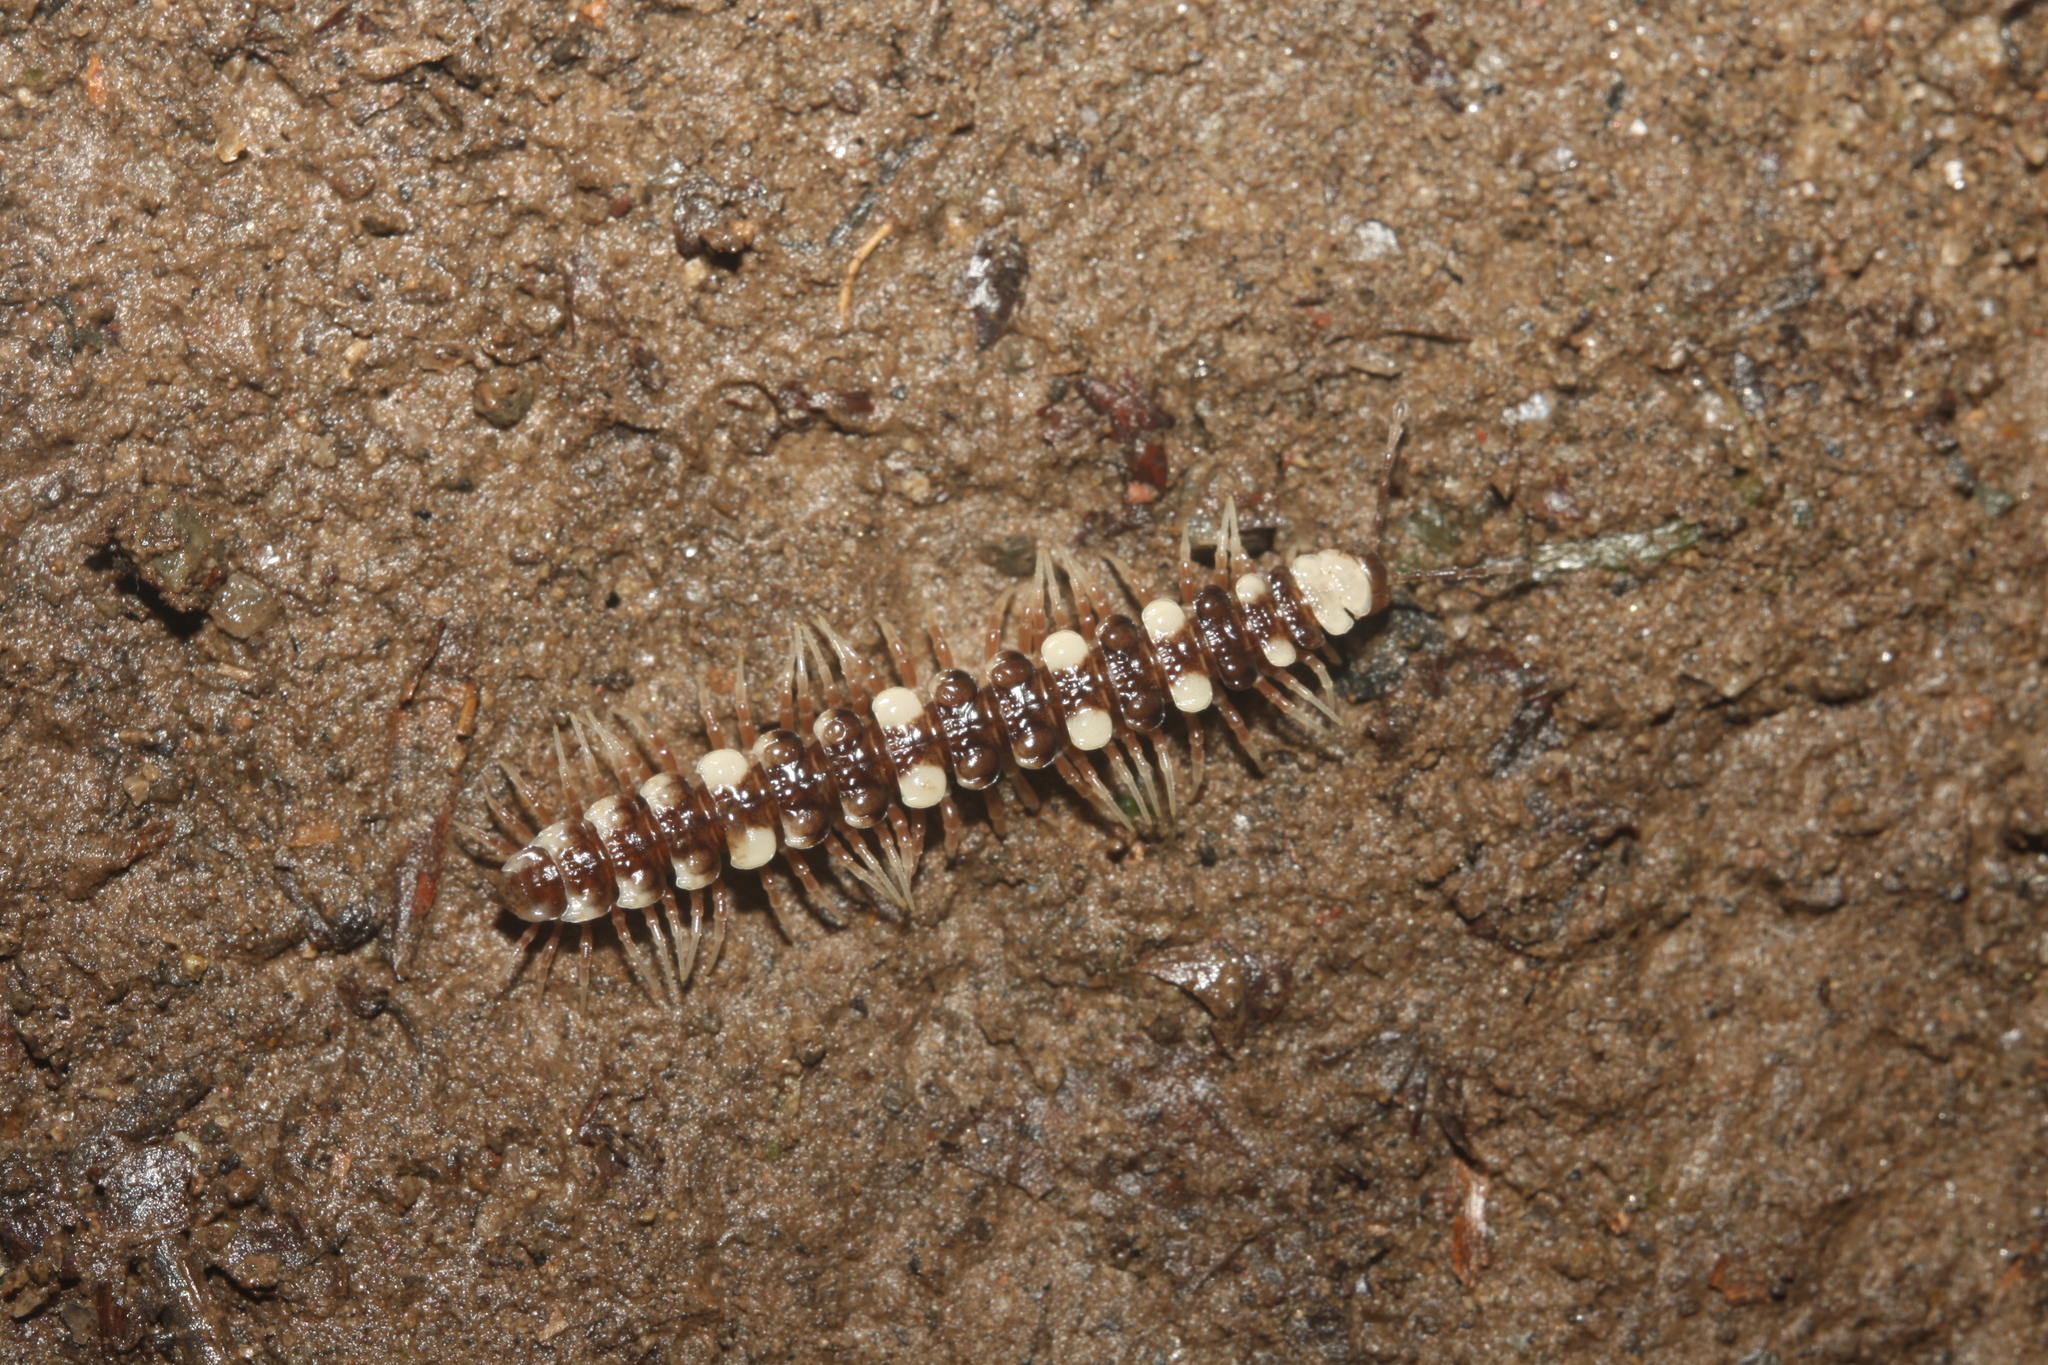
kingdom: Animalia
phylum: Arthropoda
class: Diplopoda
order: Polydesmida
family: Polydesmidae
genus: Polydesmus
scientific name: Polydesmus collaris
